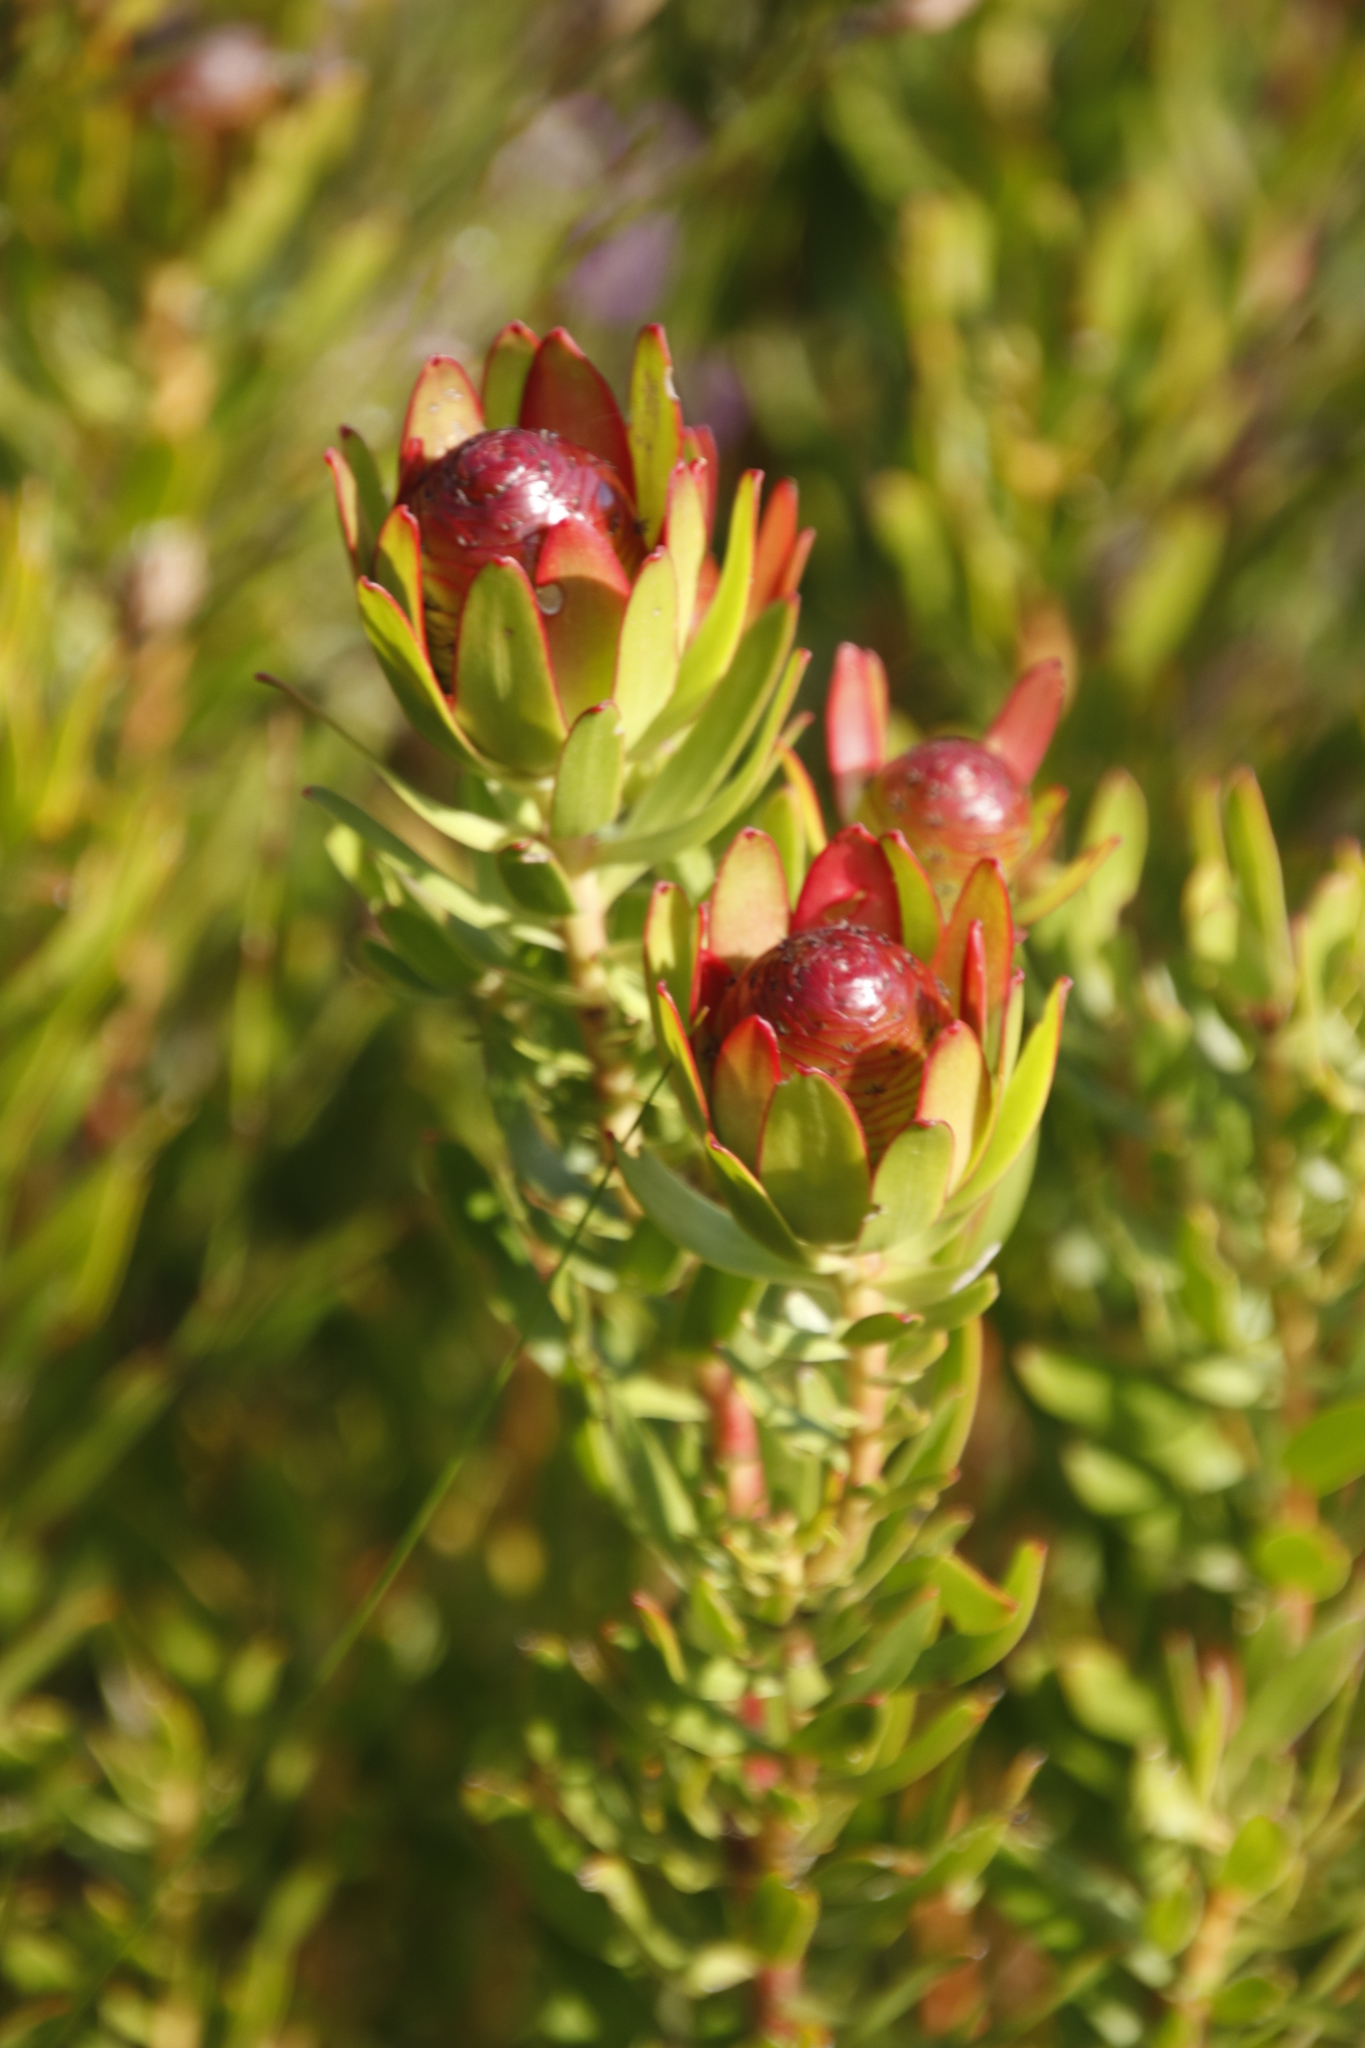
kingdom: Plantae
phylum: Tracheophyta
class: Magnoliopsida
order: Proteales
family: Proteaceae
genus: Leucadendron
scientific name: Leucadendron spissifolium
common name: Spear-leaf conebush
